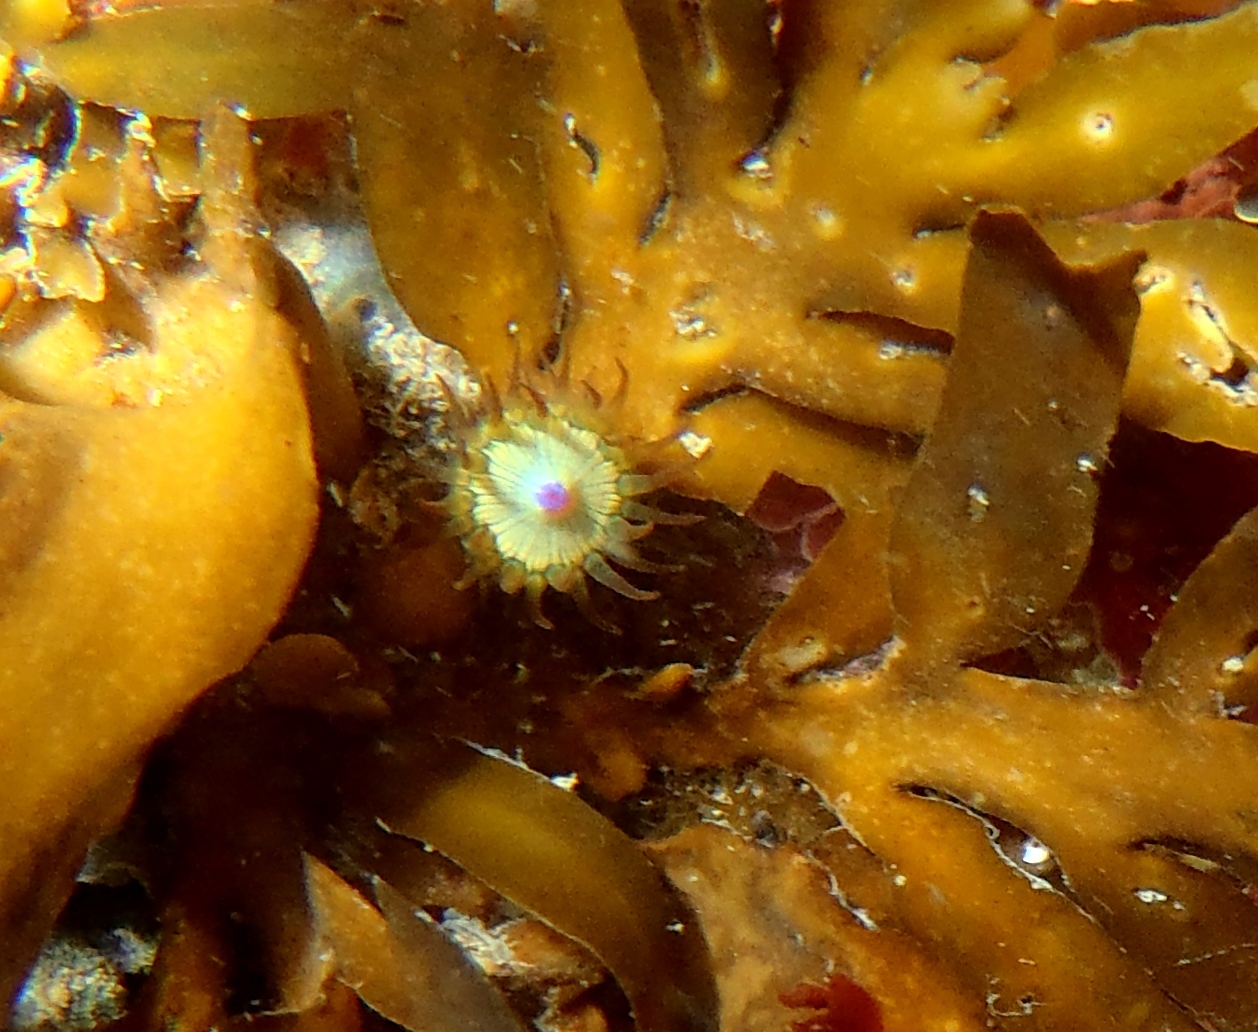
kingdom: Animalia
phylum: Cnidaria
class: Anthozoa
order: Actiniaria
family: Hormathiidae
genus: Handactis
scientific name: Handactis nutrix
